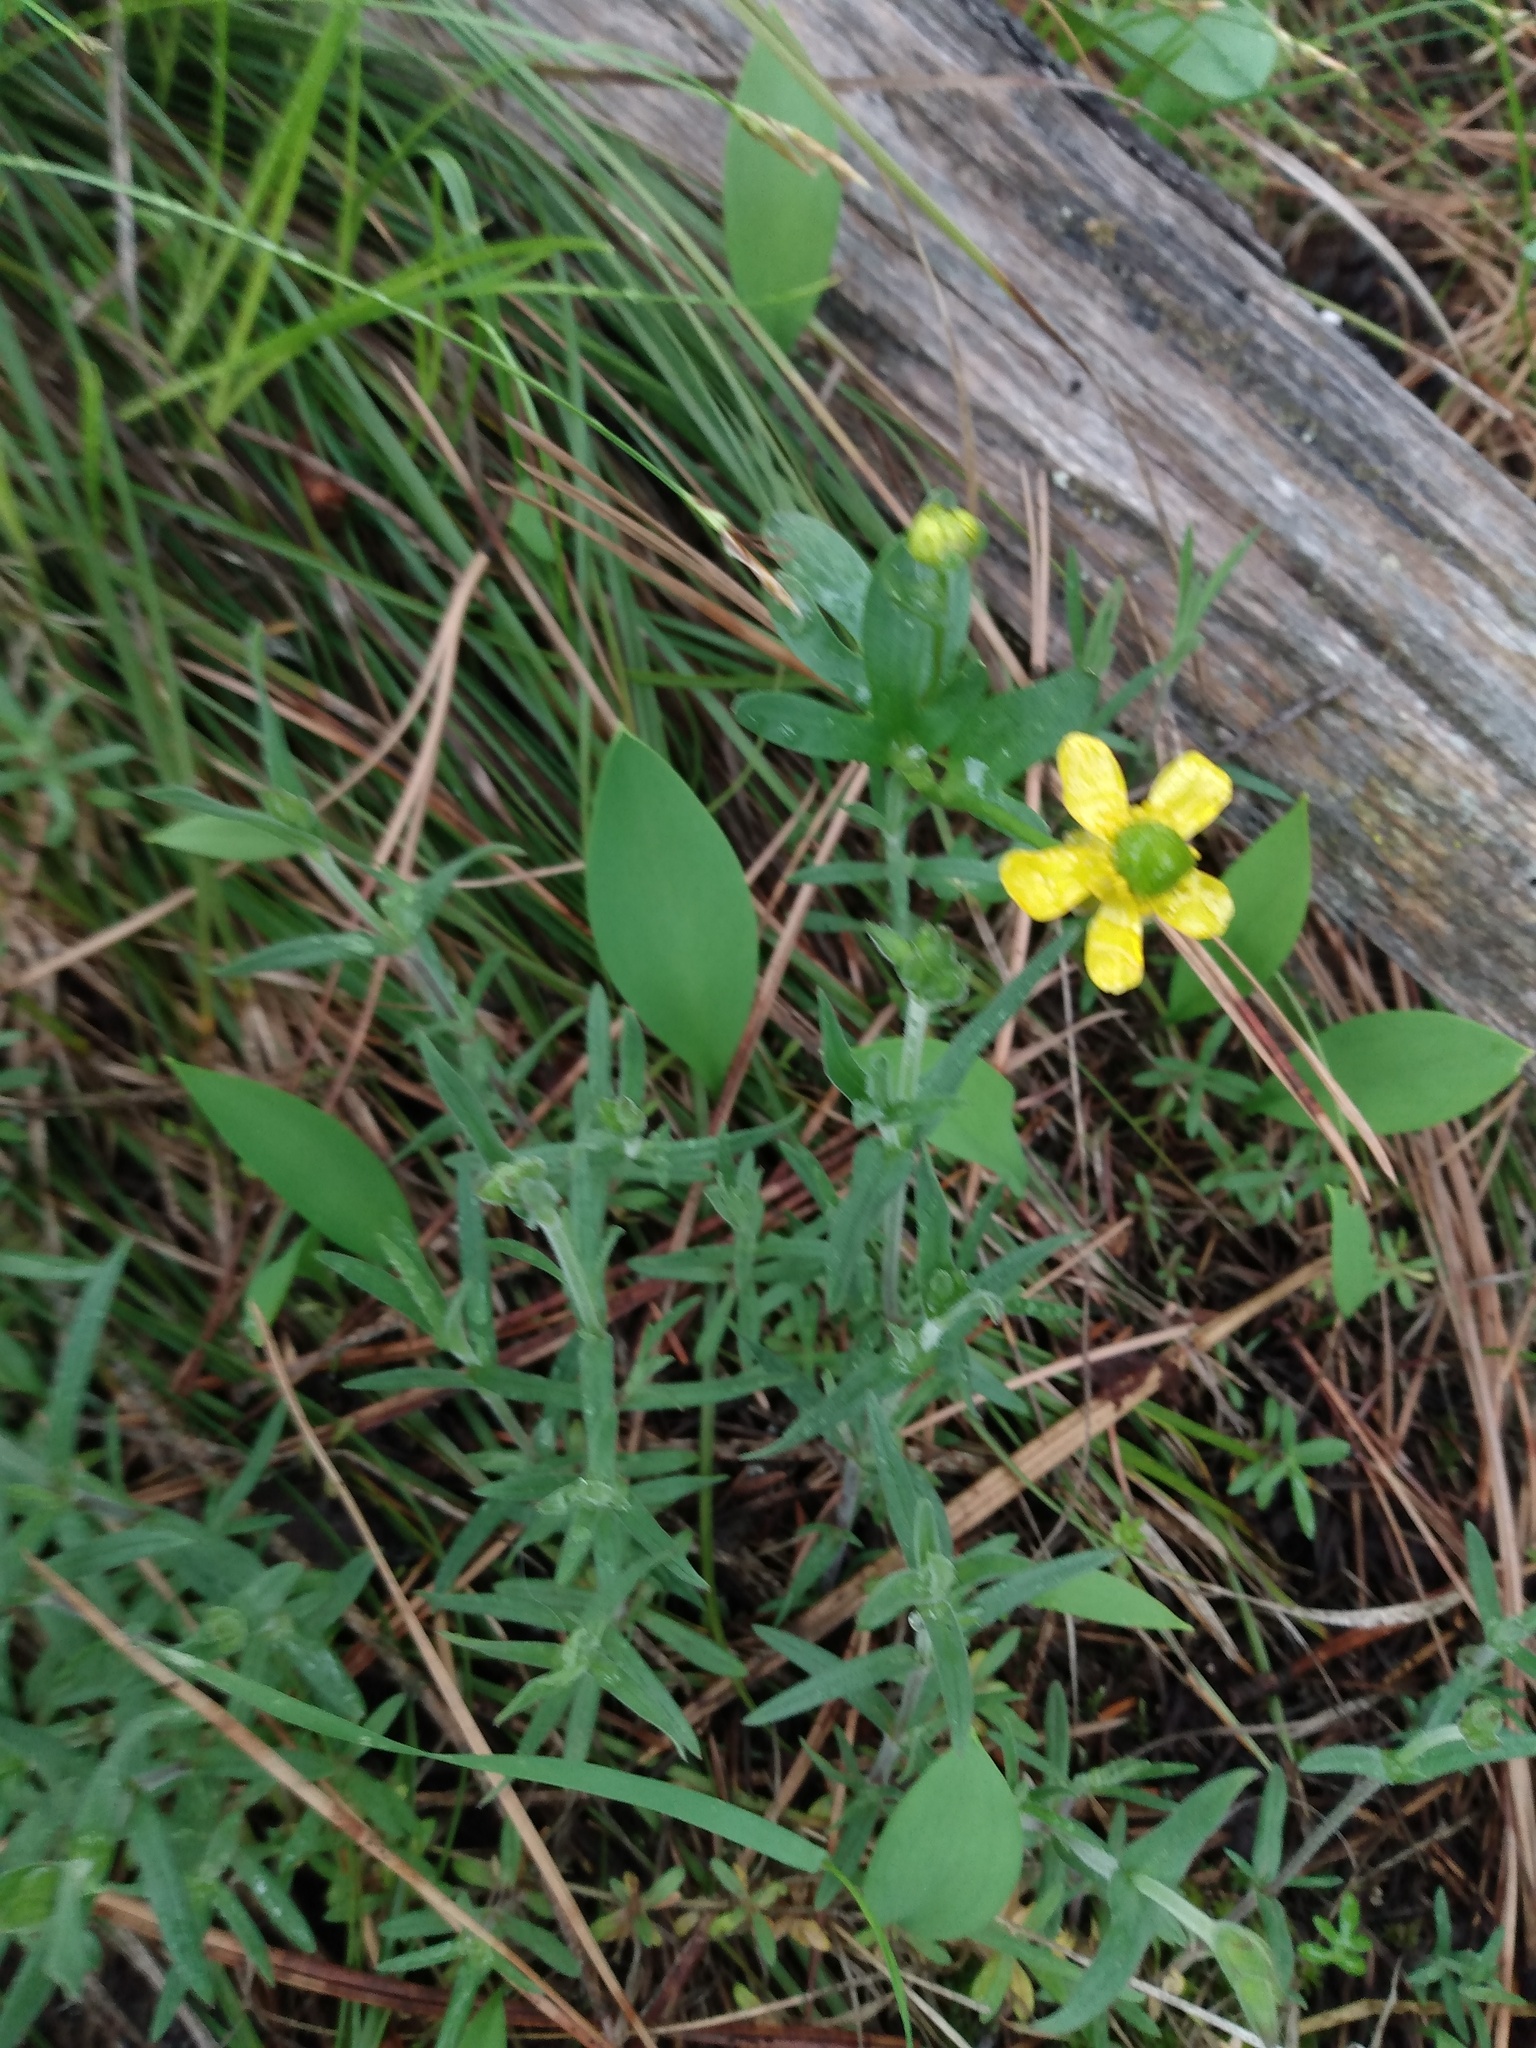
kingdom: Plantae
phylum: Tracheophyta
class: Magnoliopsida
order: Ranunculales
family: Ranunculaceae
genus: Ranunculus
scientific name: Ranunculus glaberrimus
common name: Sagebrush buttercup
